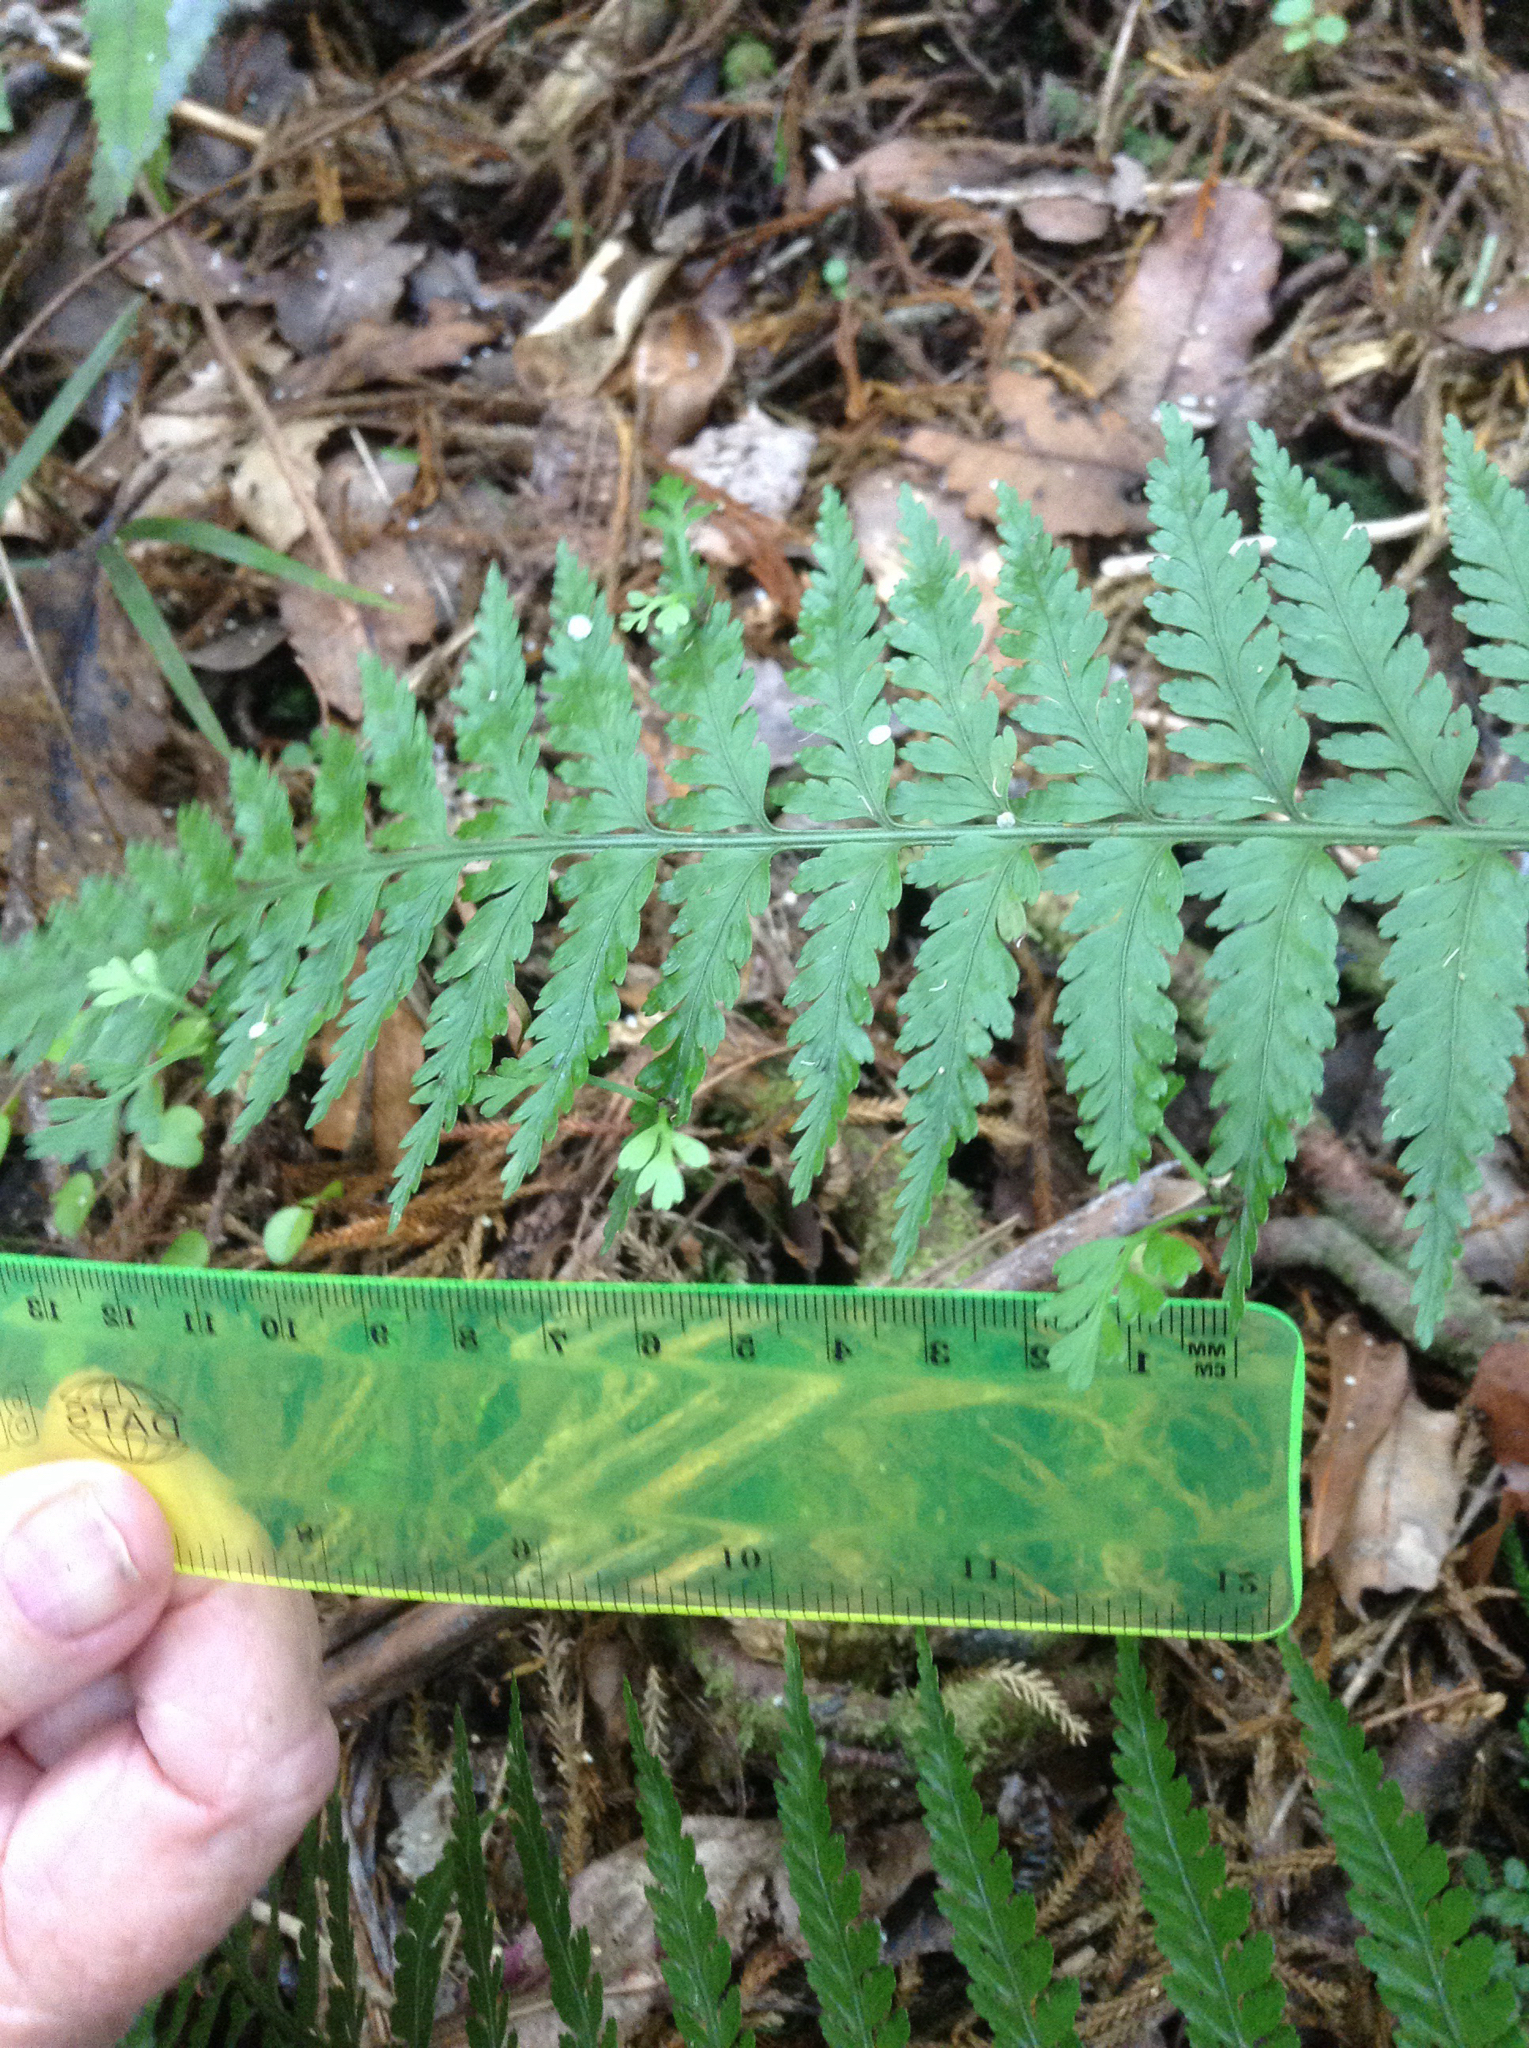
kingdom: Plantae
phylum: Tracheophyta
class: Polypodiopsida
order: Polypodiales
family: Aspleniaceae
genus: Asplenium
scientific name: Asplenium bulbiferum
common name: Mother fern
